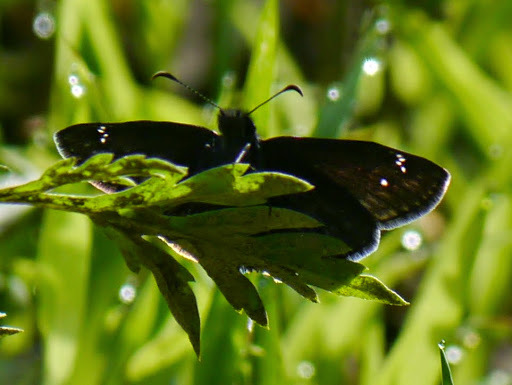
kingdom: Animalia
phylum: Arthropoda
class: Insecta
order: Lepidoptera
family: Hesperiidae
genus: Erynnis
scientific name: Erynnis baptisiae
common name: Wild indigo duskywing
